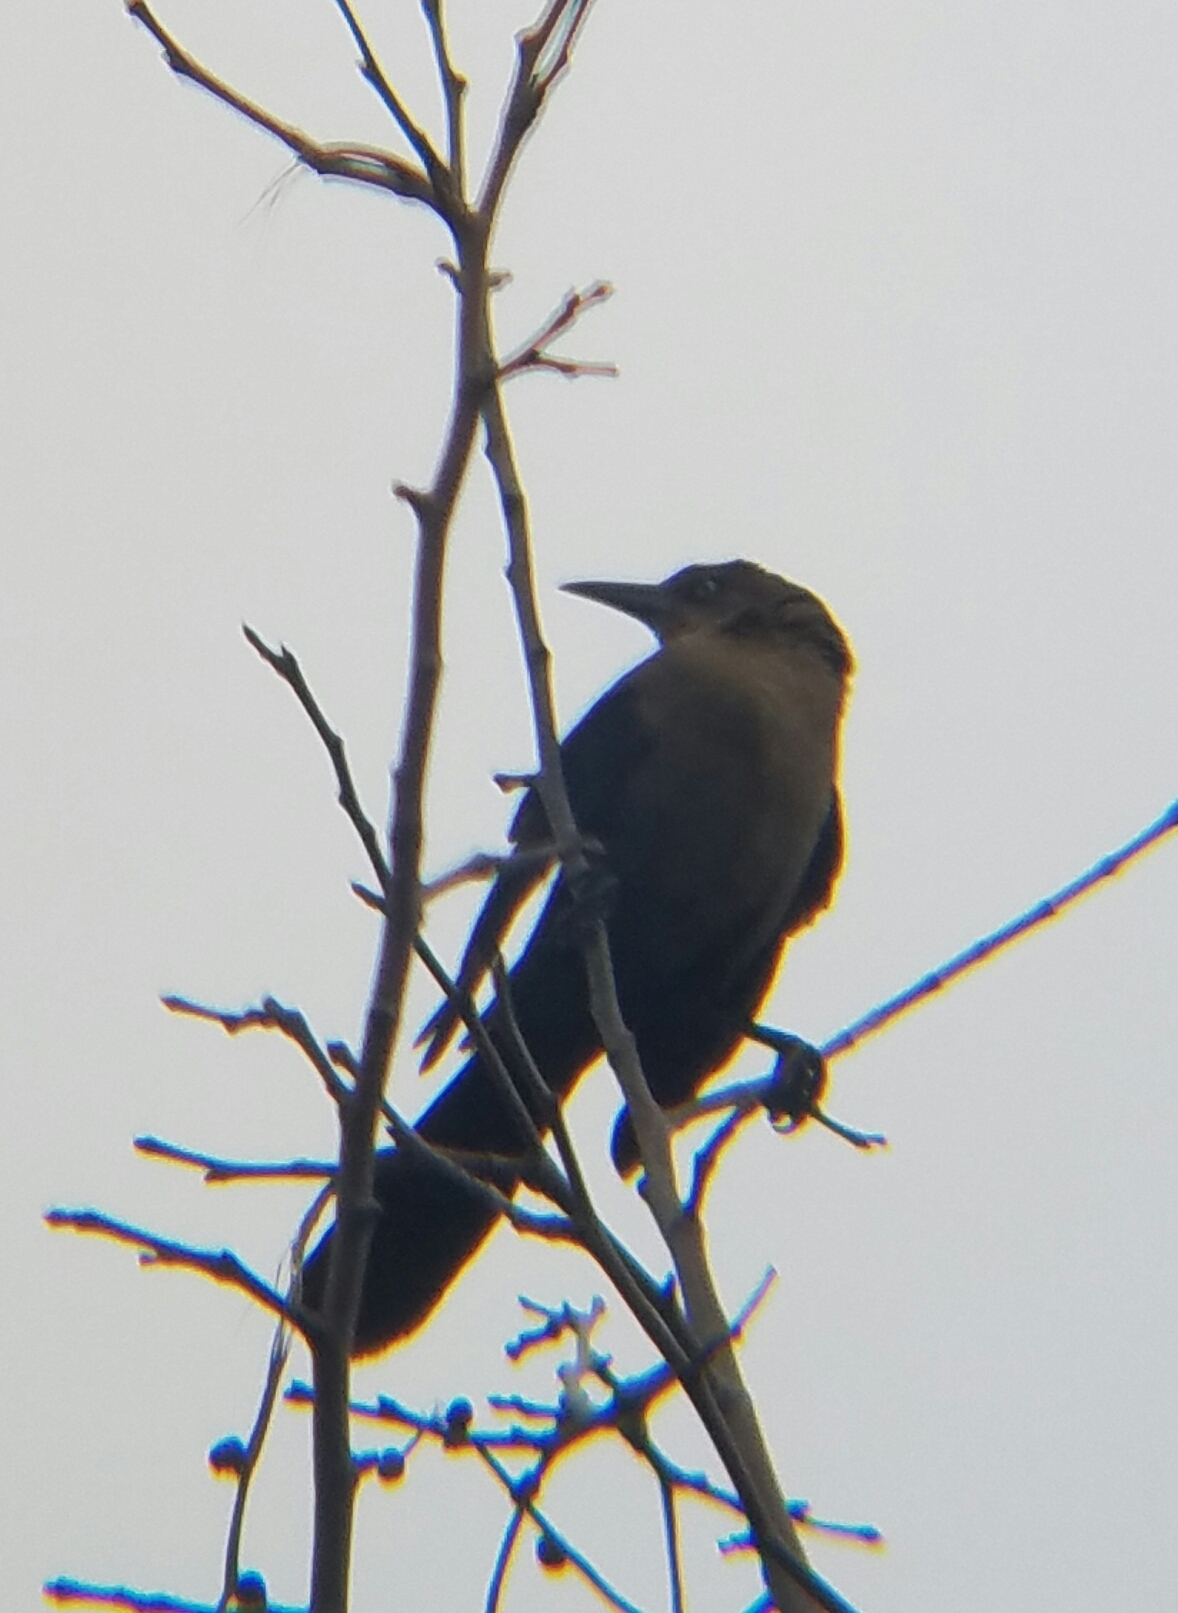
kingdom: Animalia
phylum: Chordata
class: Aves
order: Passeriformes
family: Icteridae
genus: Quiscalus
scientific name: Quiscalus mexicanus
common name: Great-tailed grackle
